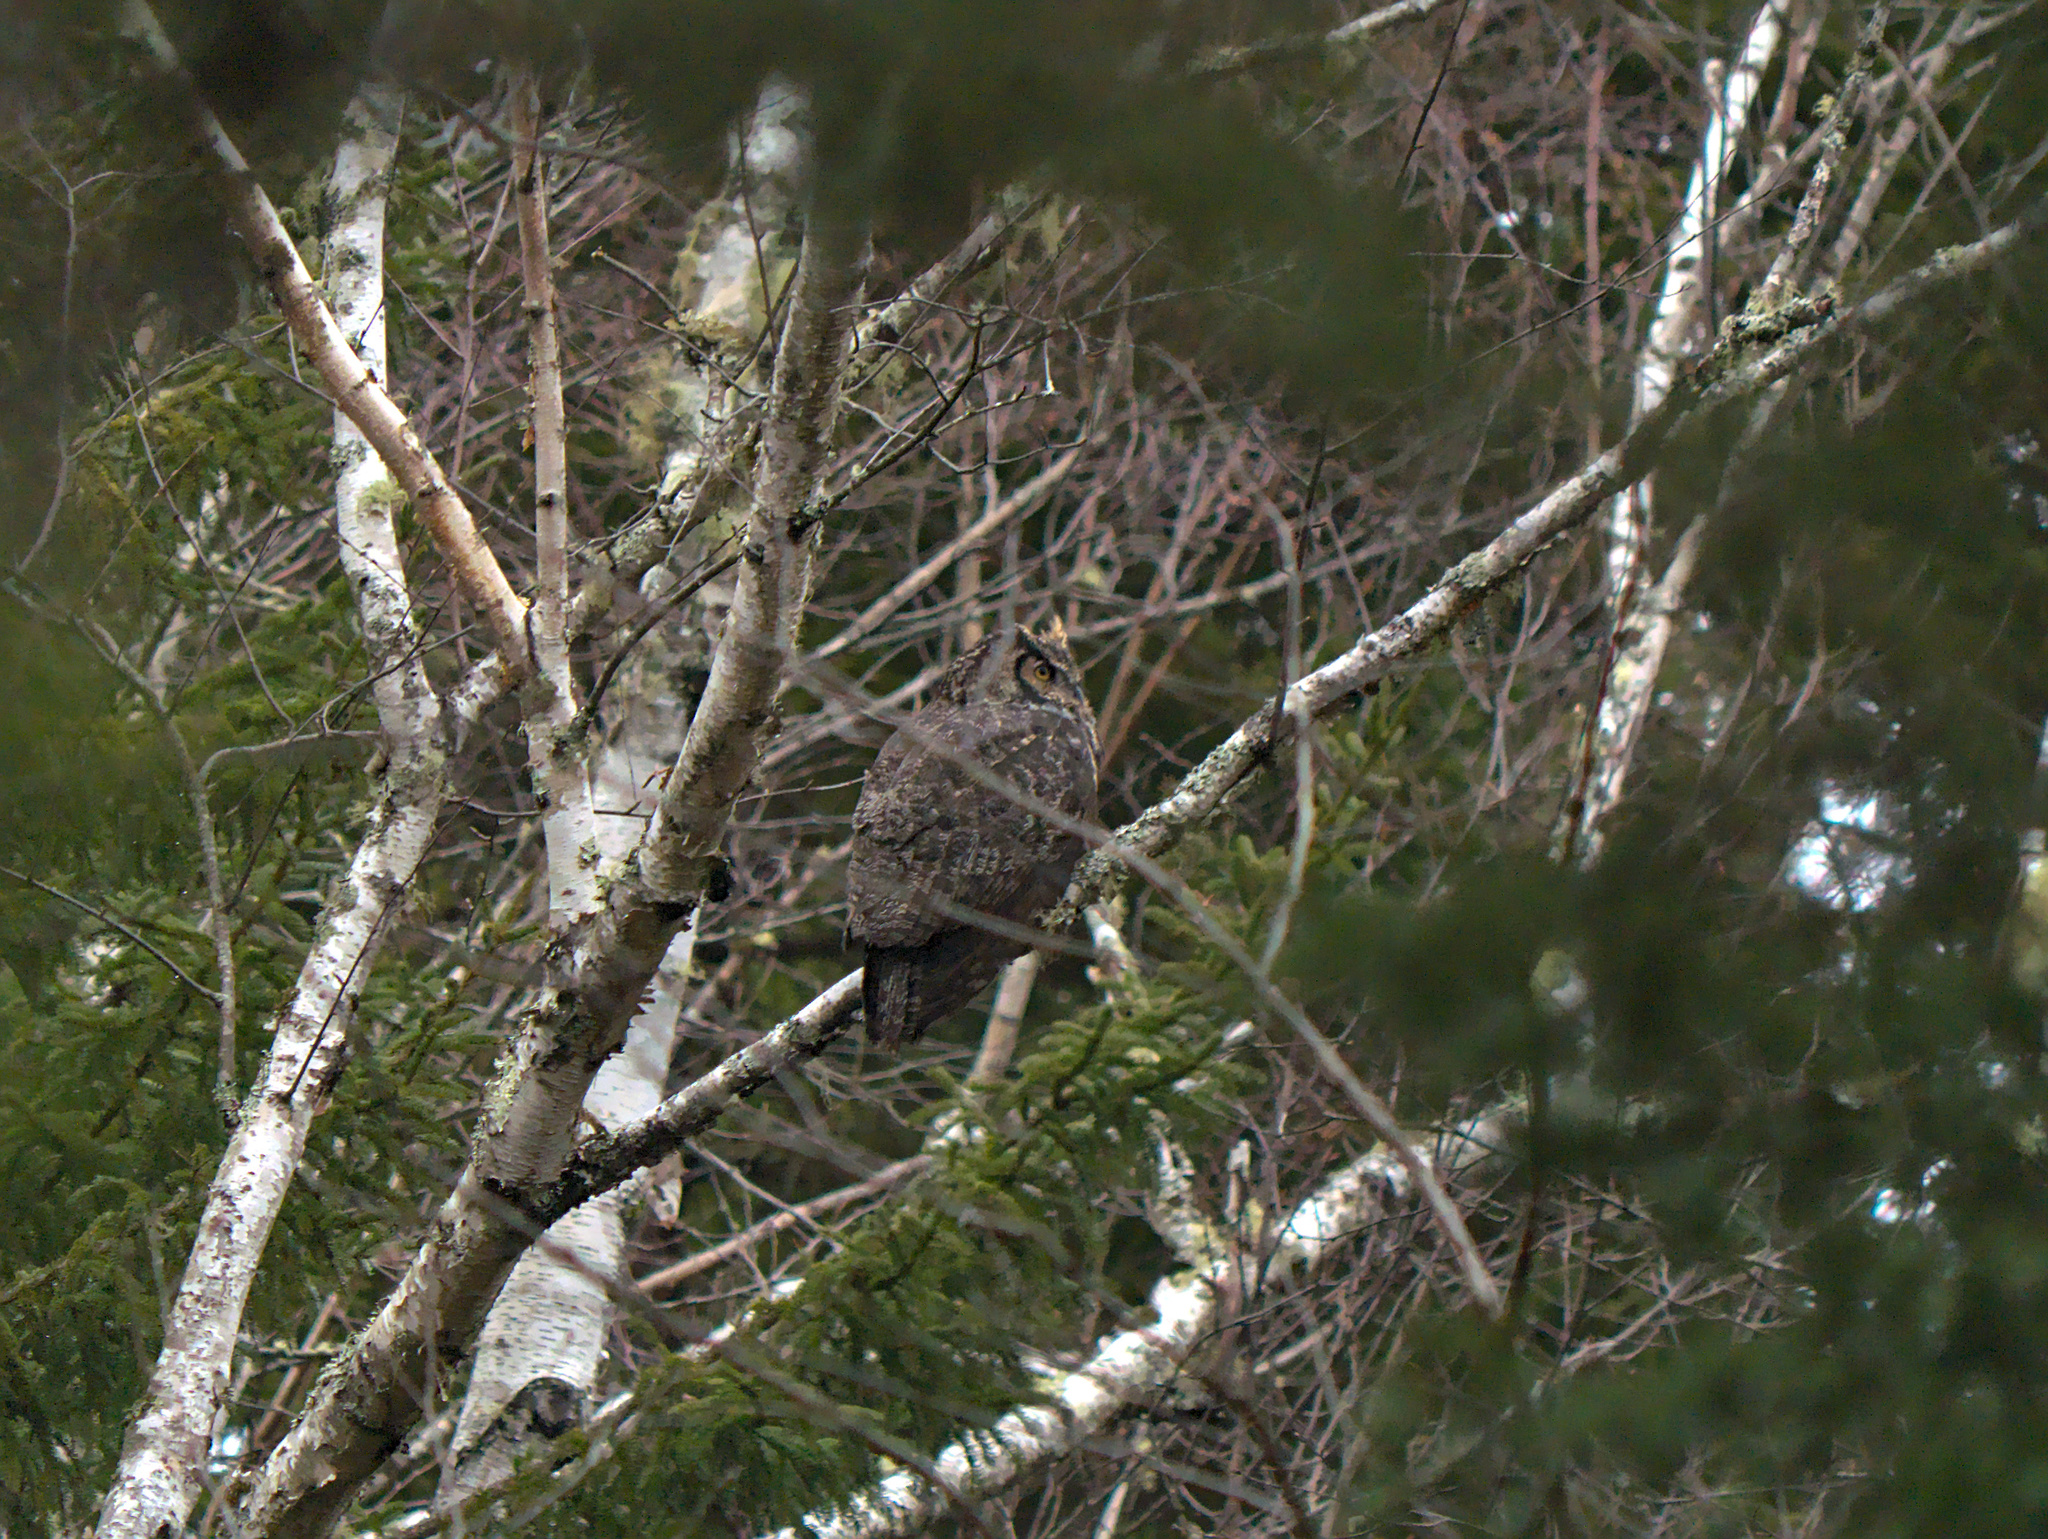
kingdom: Animalia
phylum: Chordata
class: Aves
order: Strigiformes
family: Strigidae
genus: Bubo
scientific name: Bubo virginianus
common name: Great horned owl
